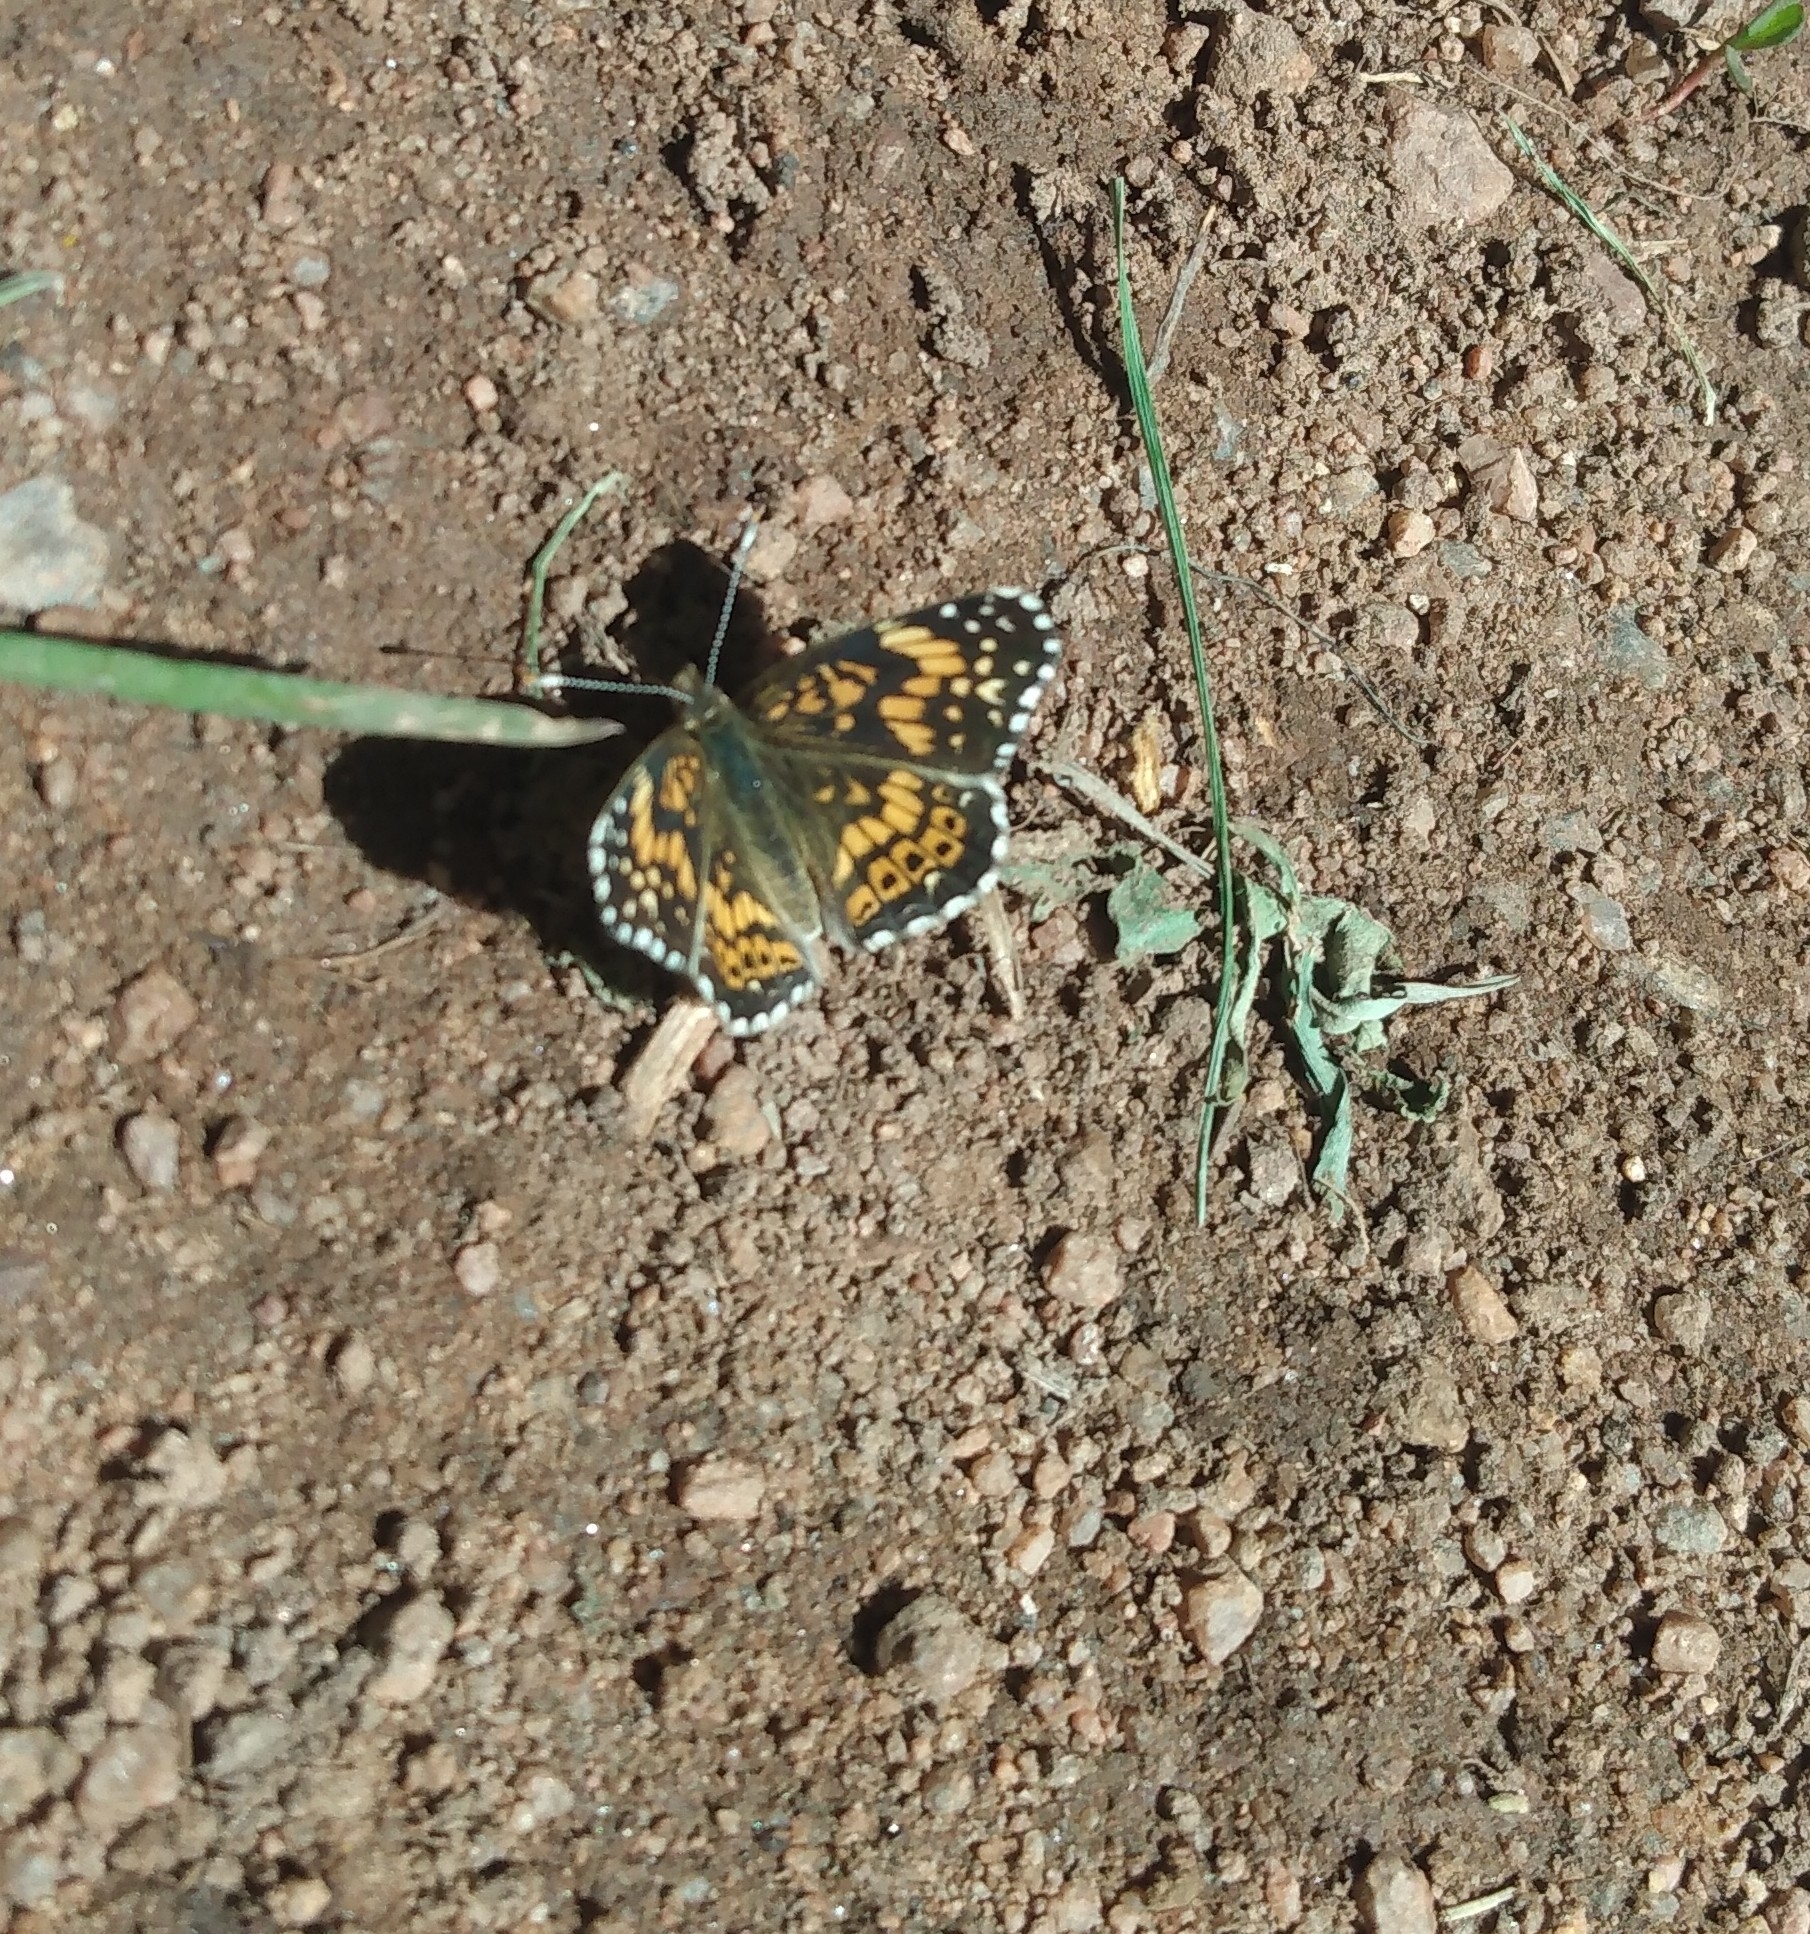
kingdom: Animalia
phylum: Arthropoda
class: Insecta
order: Lepidoptera
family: Nymphalidae
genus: Chlosyne
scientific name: Chlosyne gorgone
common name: Gorgone checkerspot
